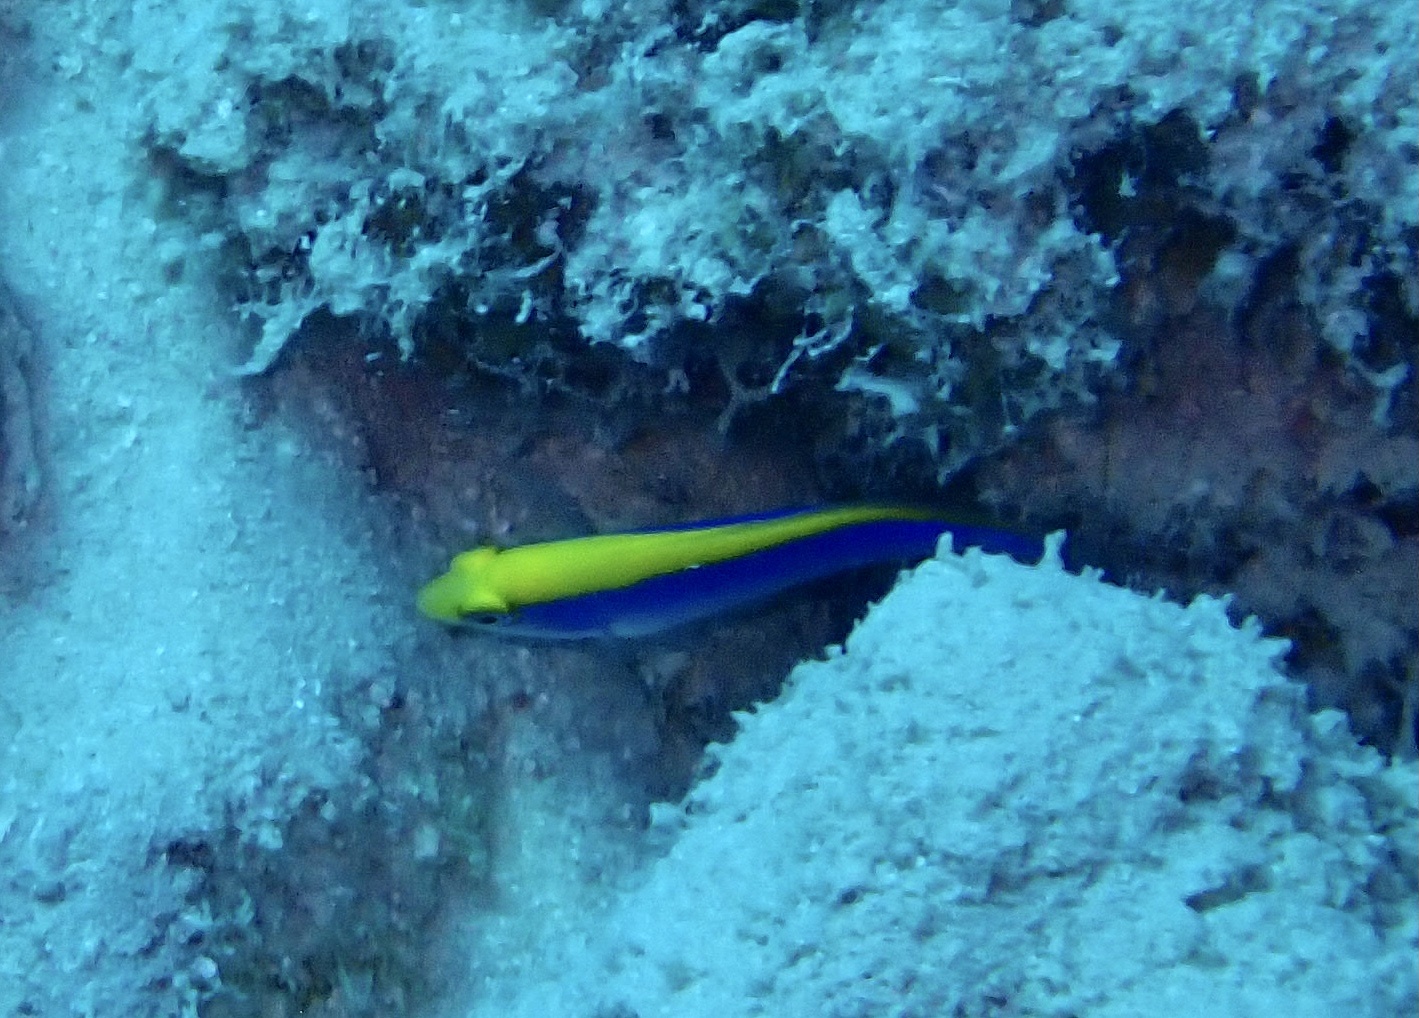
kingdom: Animalia
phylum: Chordata
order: Perciformes
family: Pseudochromidae
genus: Pseudochromis
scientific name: Pseudochromis flavivertex
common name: Sunrise dottyback
